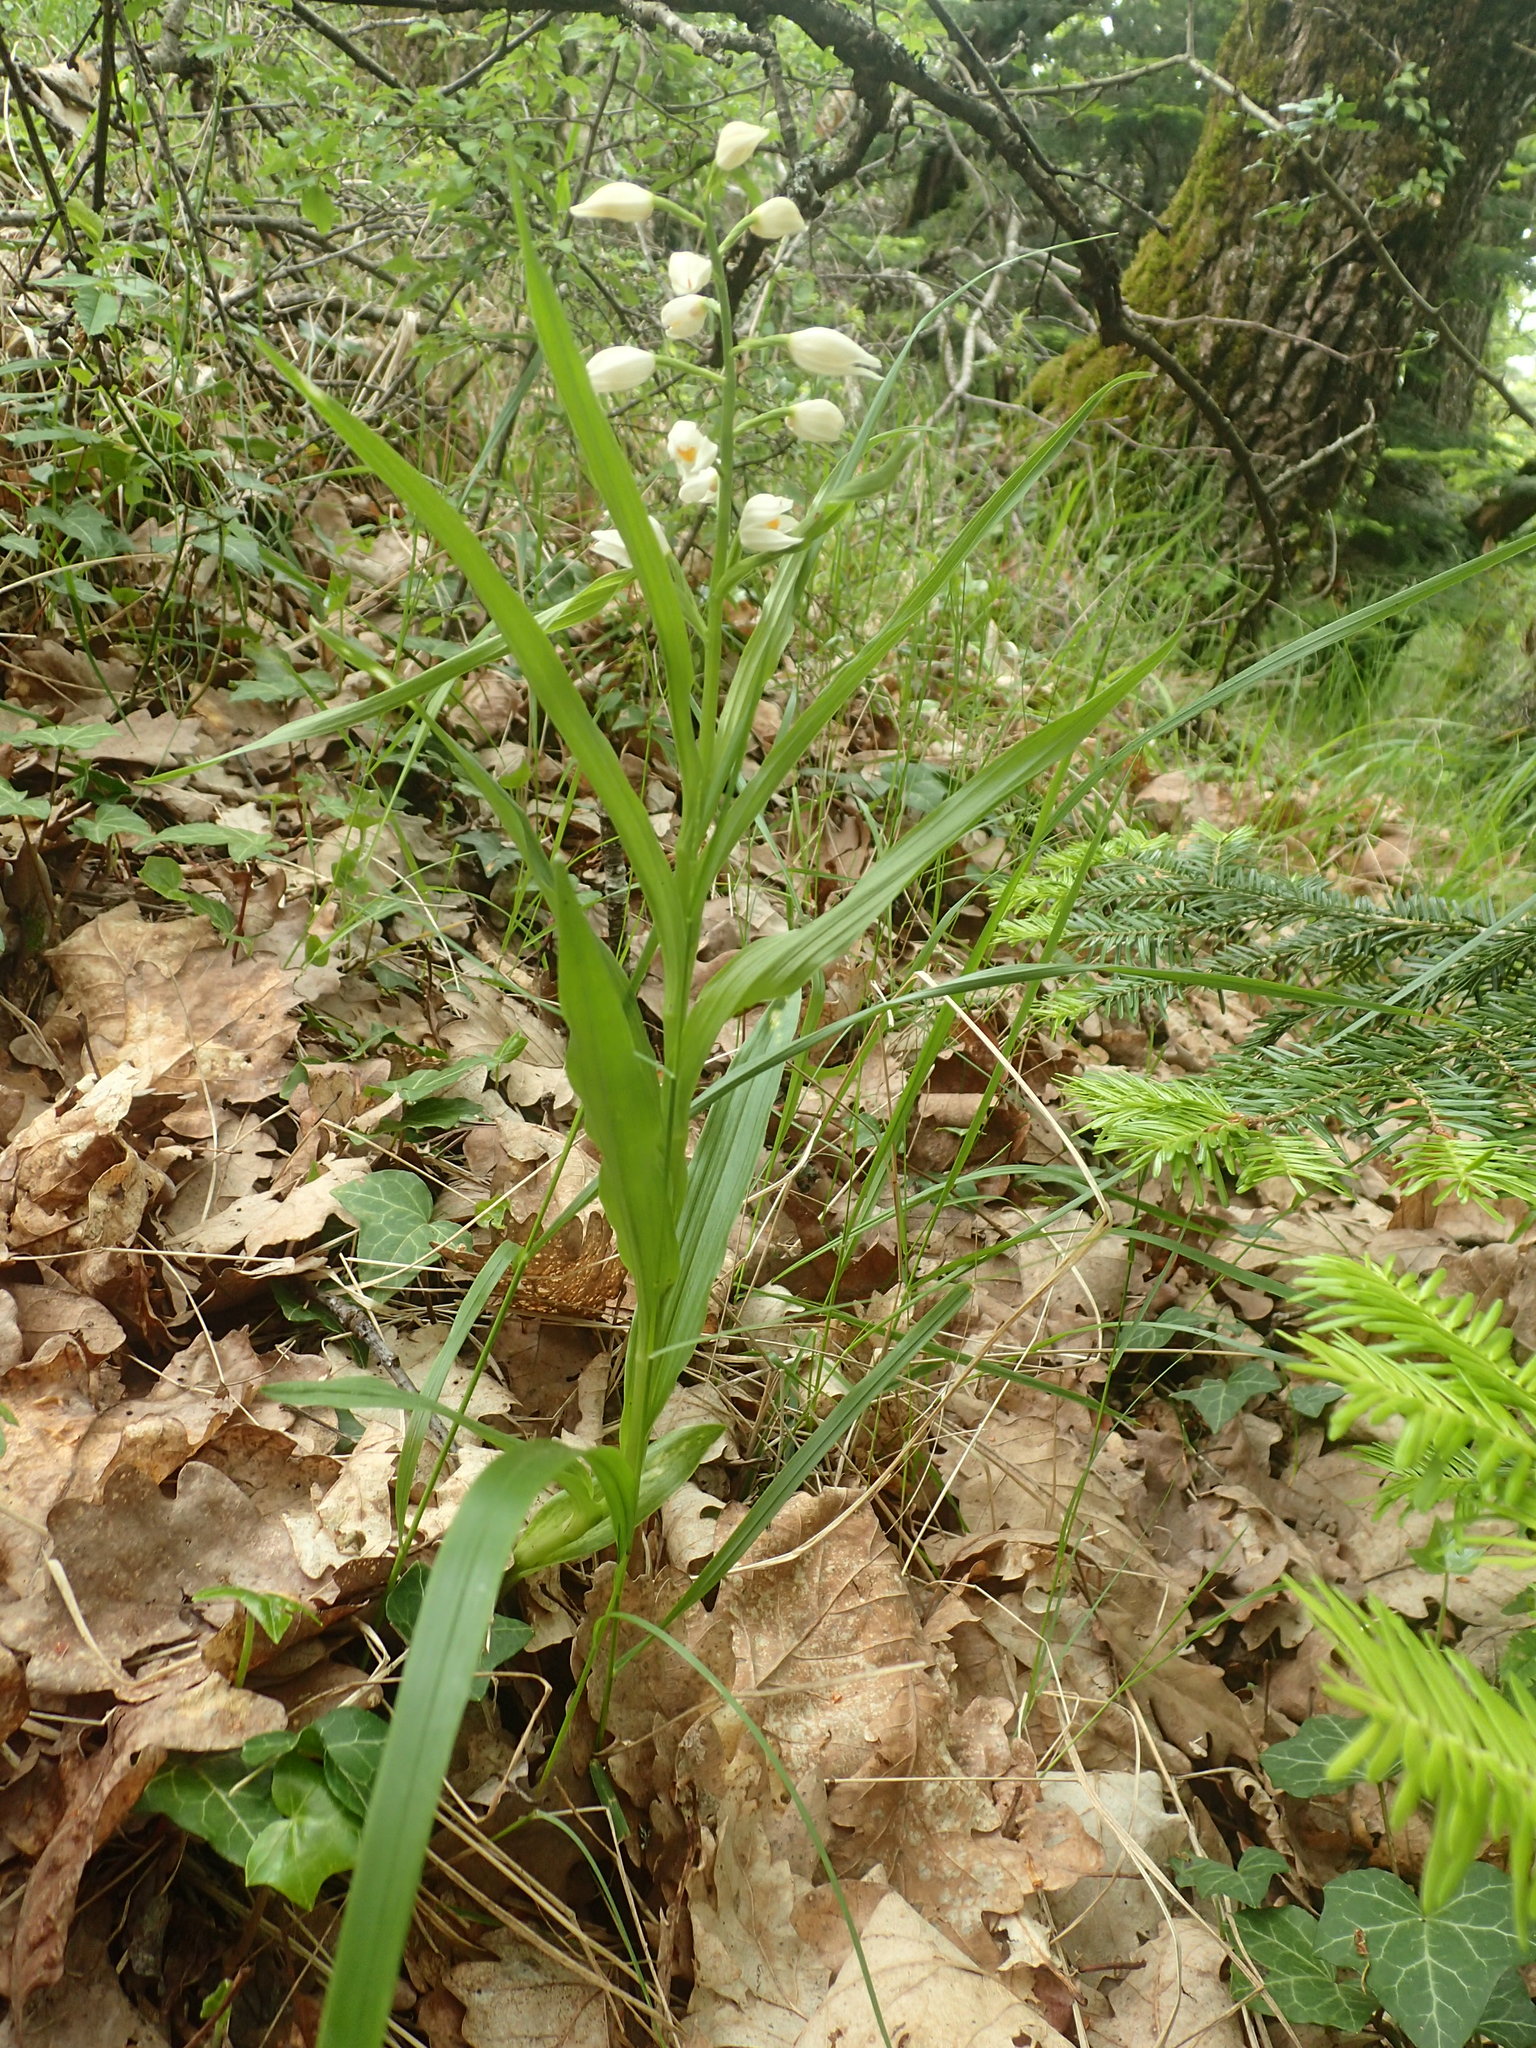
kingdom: Plantae
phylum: Tracheophyta
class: Liliopsida
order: Asparagales
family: Orchidaceae
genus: Cephalanthera
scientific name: Cephalanthera longifolia
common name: Narrow-leaved helleborine
